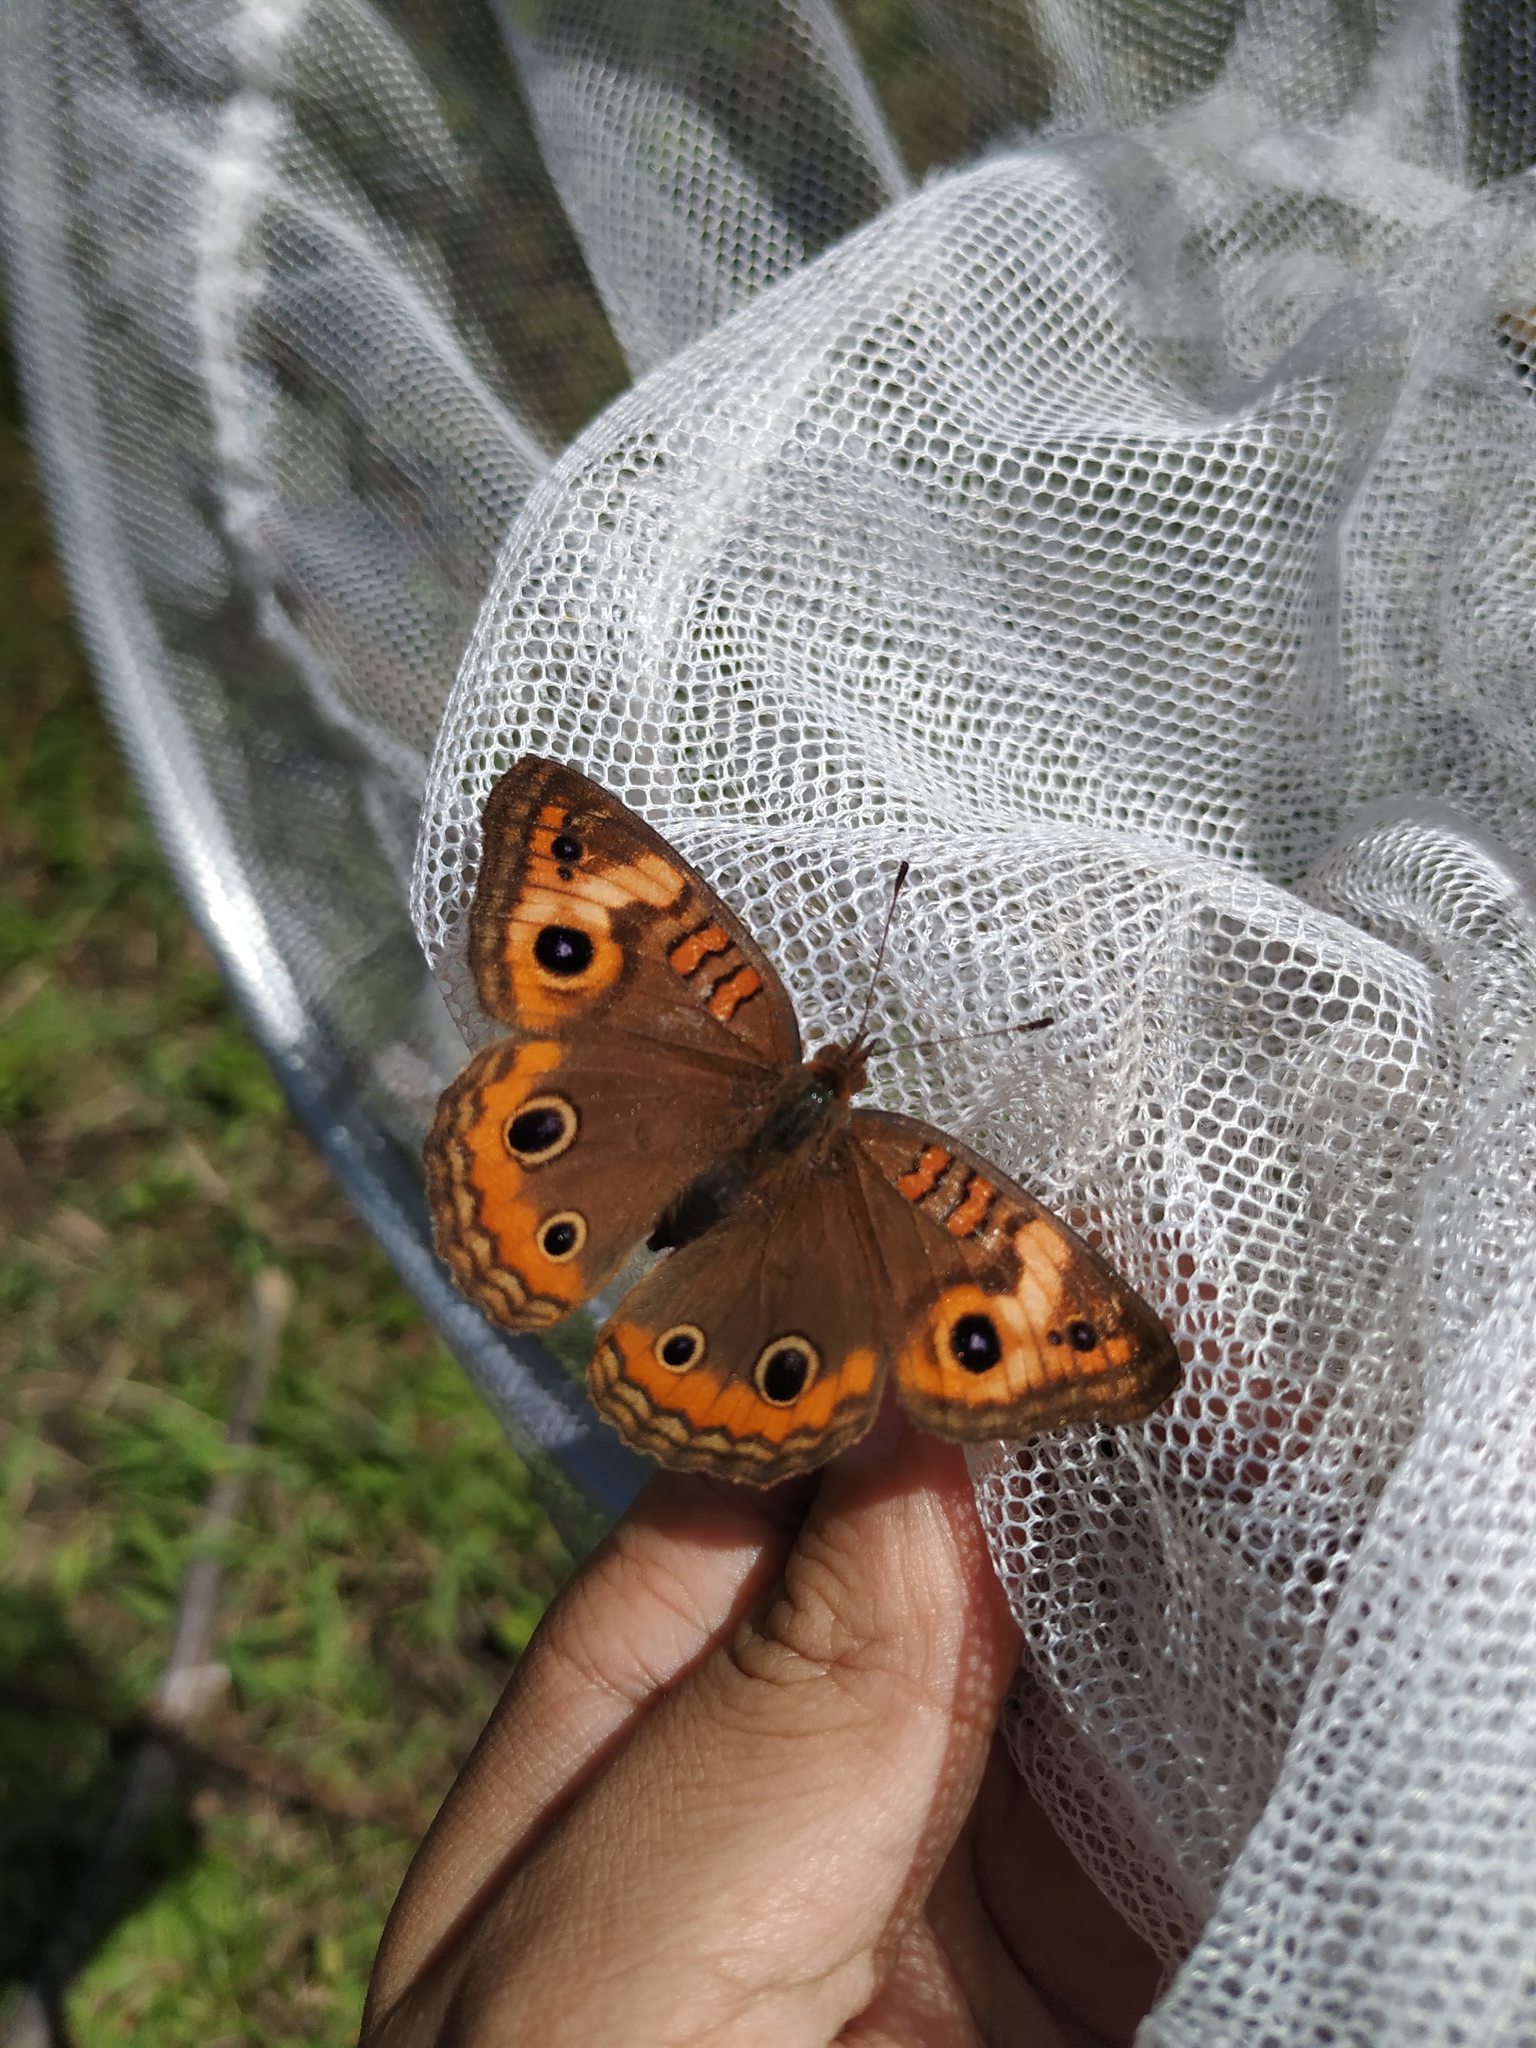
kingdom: Animalia
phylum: Arthropoda
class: Insecta
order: Lepidoptera
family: Nymphalidae
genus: Junonia
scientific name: Junonia lavinia
